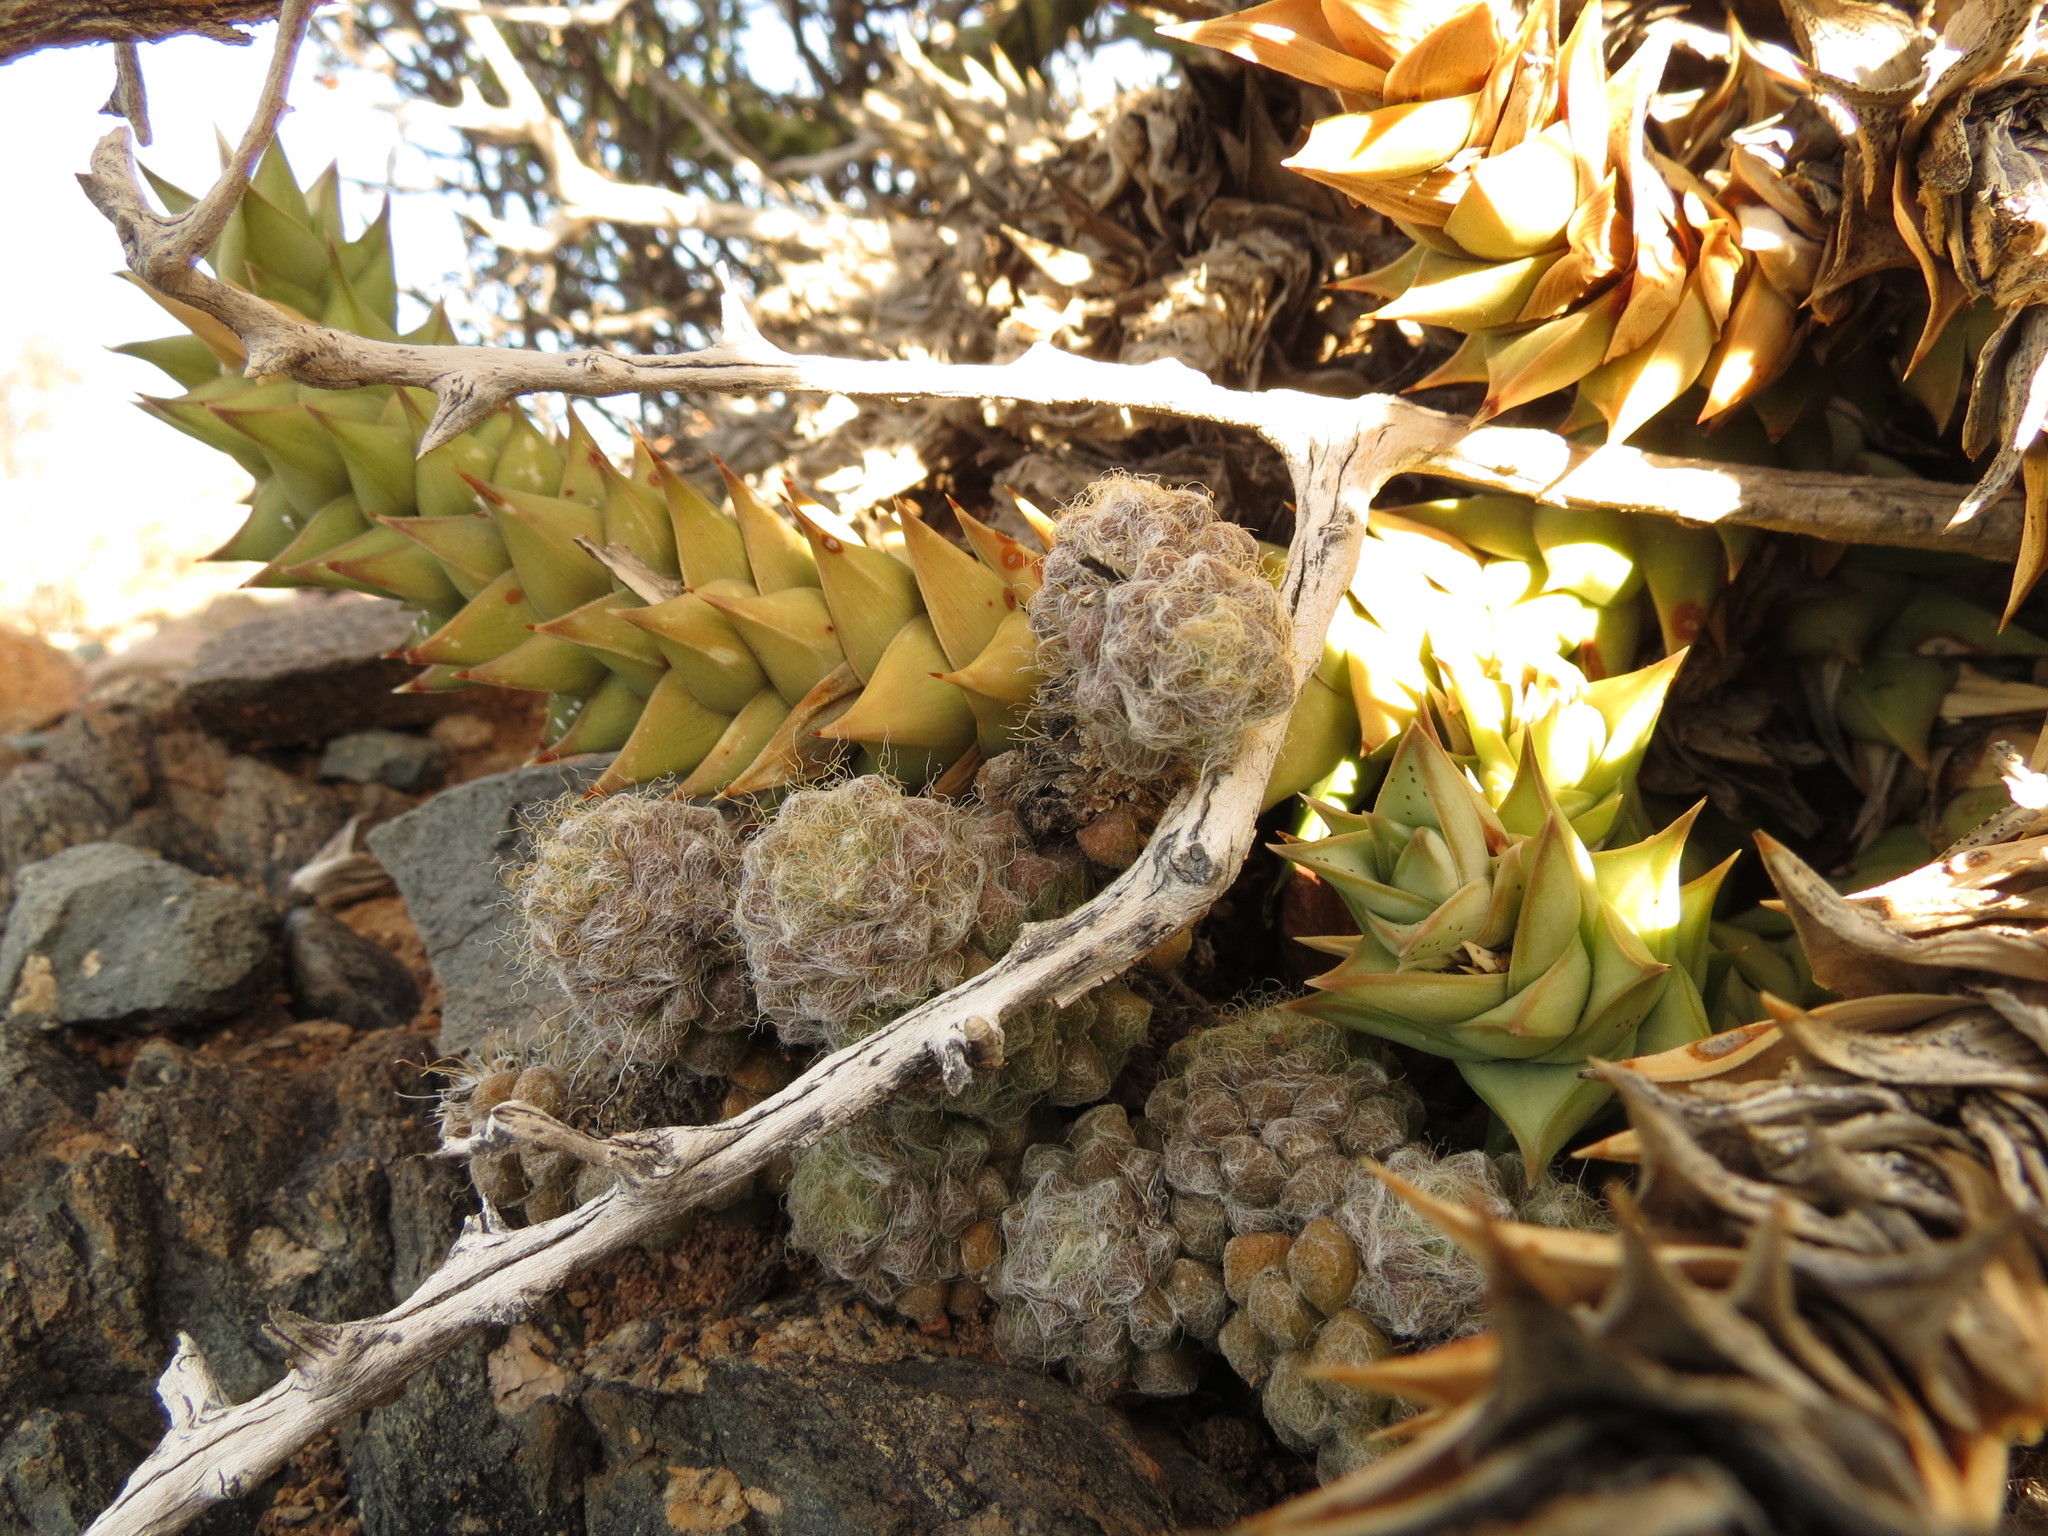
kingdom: Plantae
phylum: Tracheophyta
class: Magnoliopsida
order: Caryophyllales
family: Anacampserotaceae
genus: Anacampseros
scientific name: Anacampseros albidiflora
